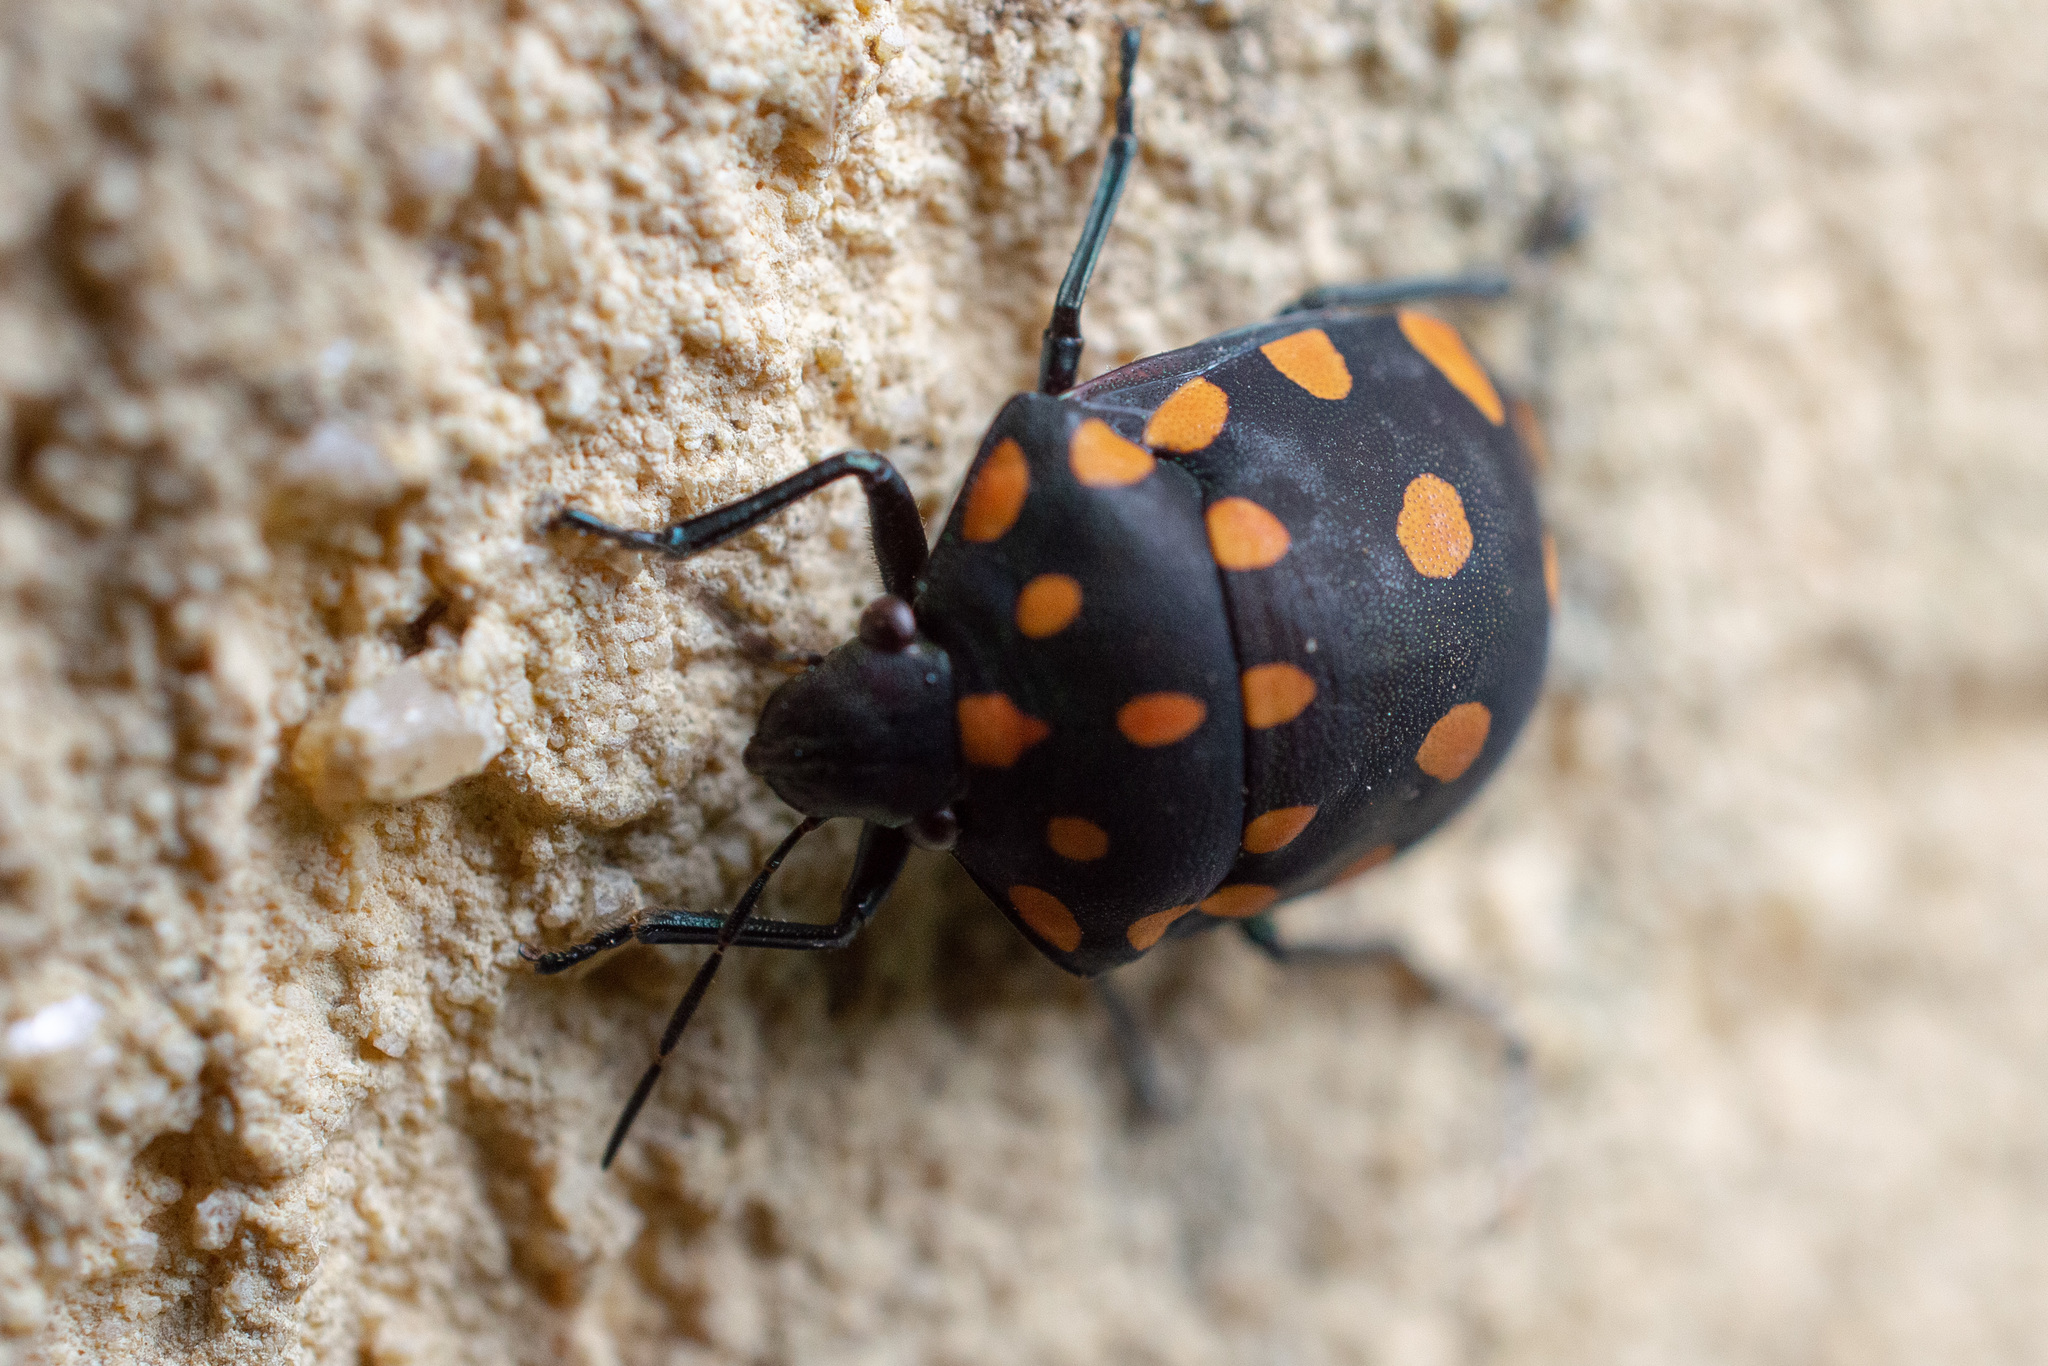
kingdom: Animalia
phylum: Arthropoda
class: Insecta
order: Hemiptera
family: Scutelleridae
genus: Pachycoris
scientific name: Pachycoris torridus
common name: Torrid jewel bug
